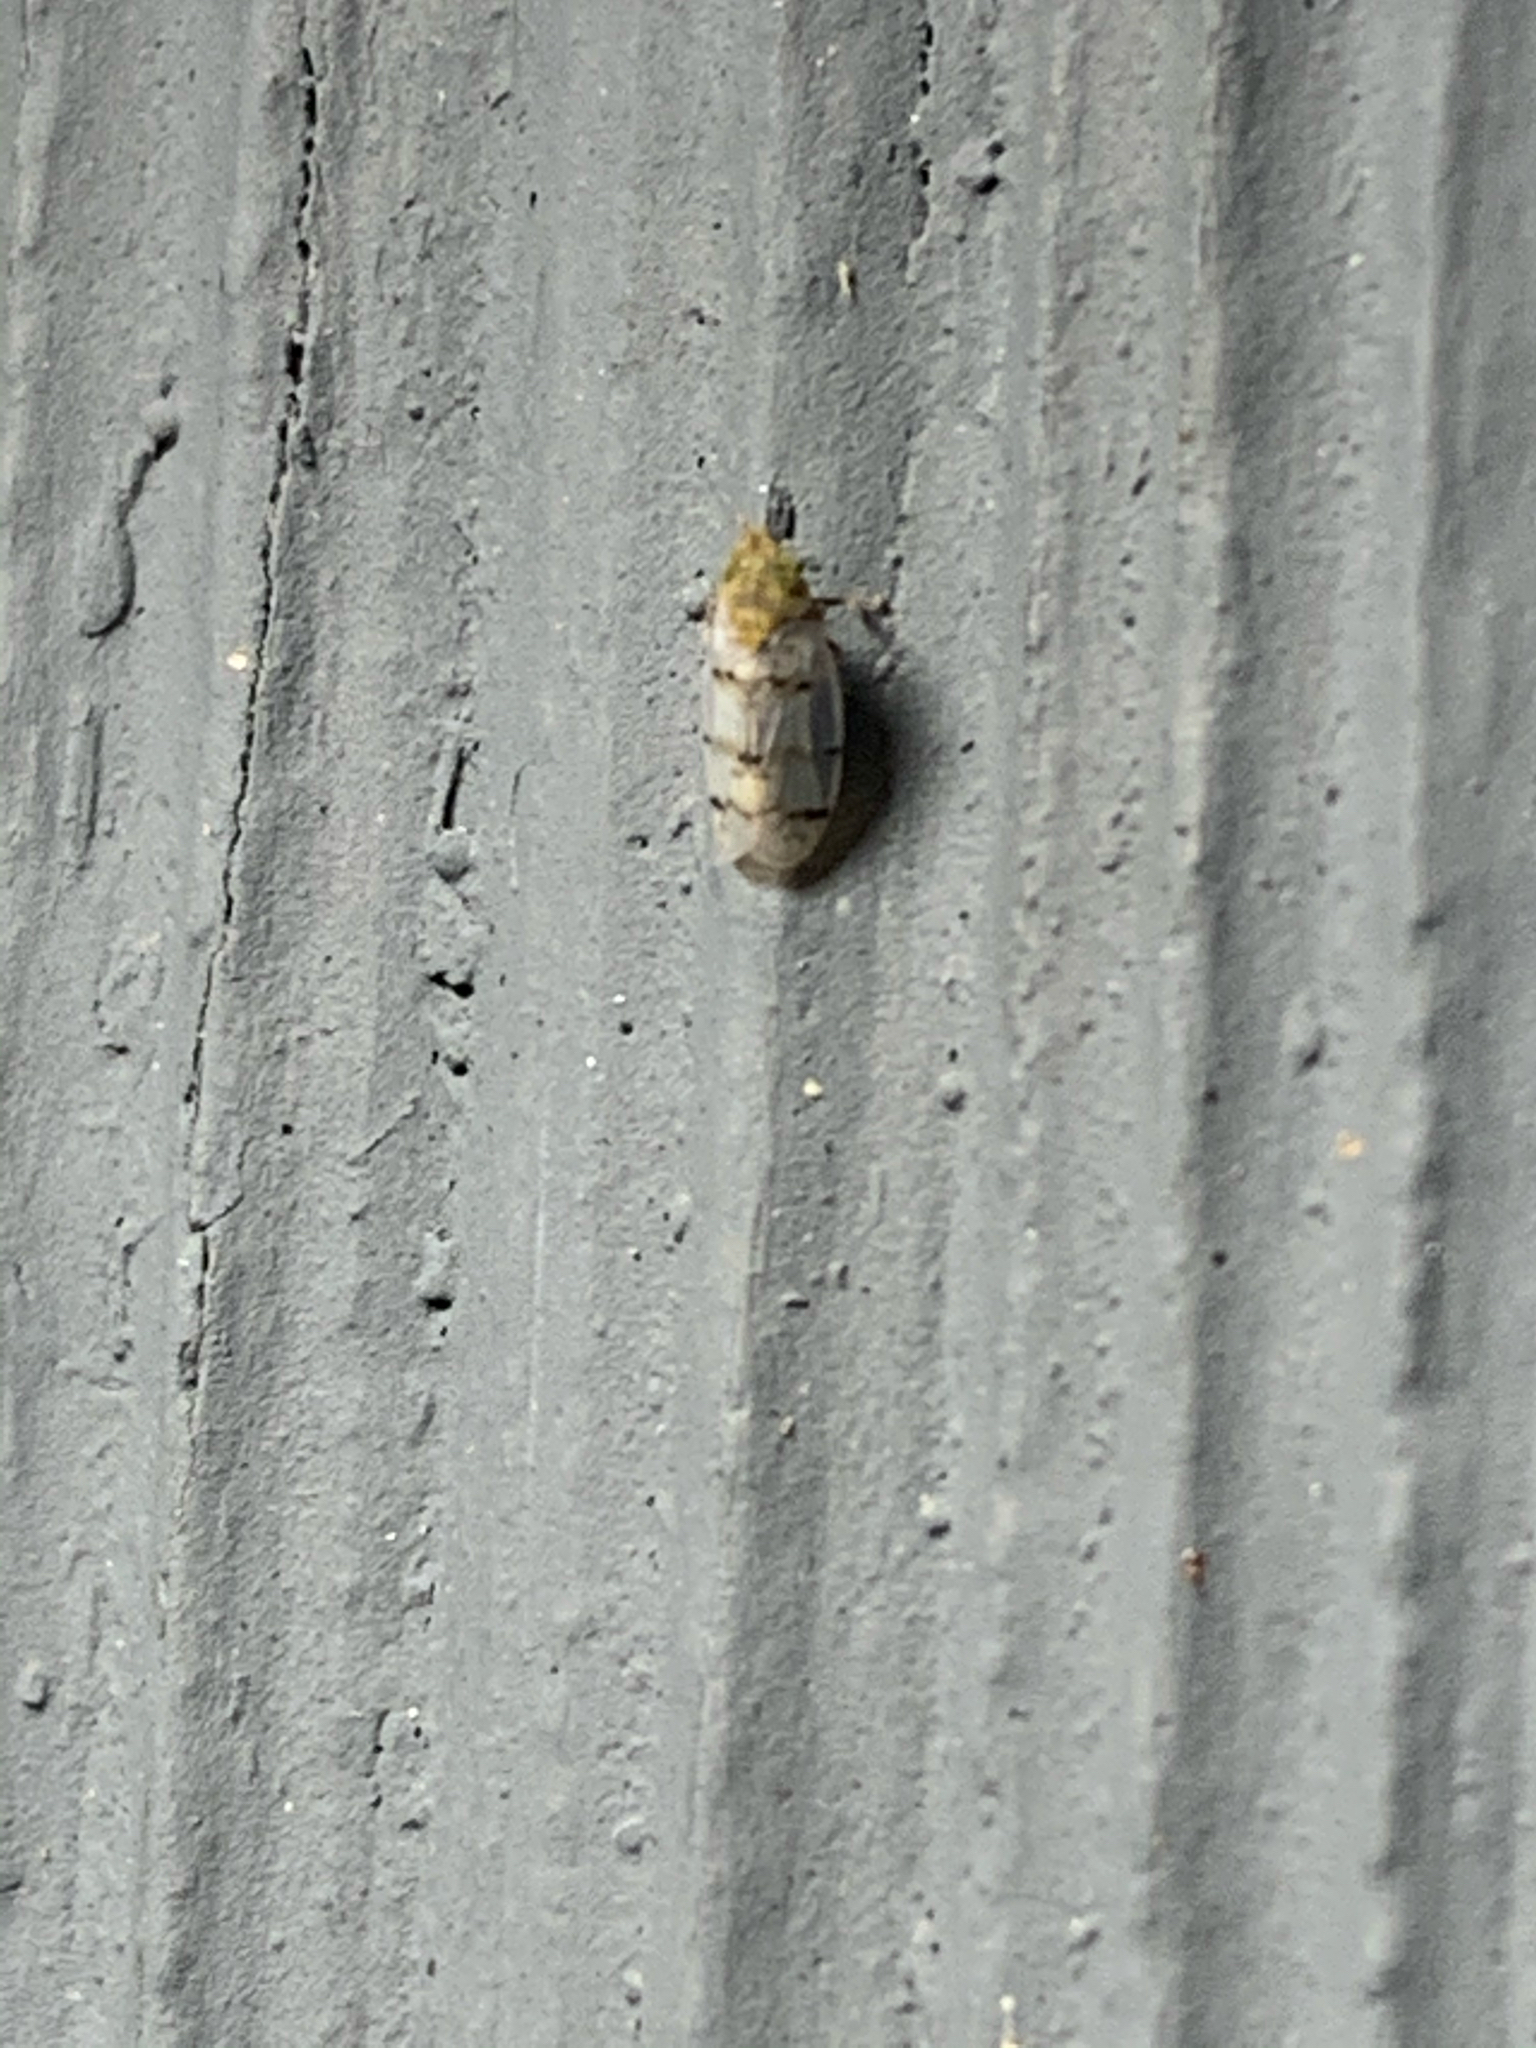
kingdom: Animalia
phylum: Arthropoda
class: Insecta
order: Hemiptera
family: Cicadellidae
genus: Japananus
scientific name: Japananus hyalinus
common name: The japanese maple leafhopper
